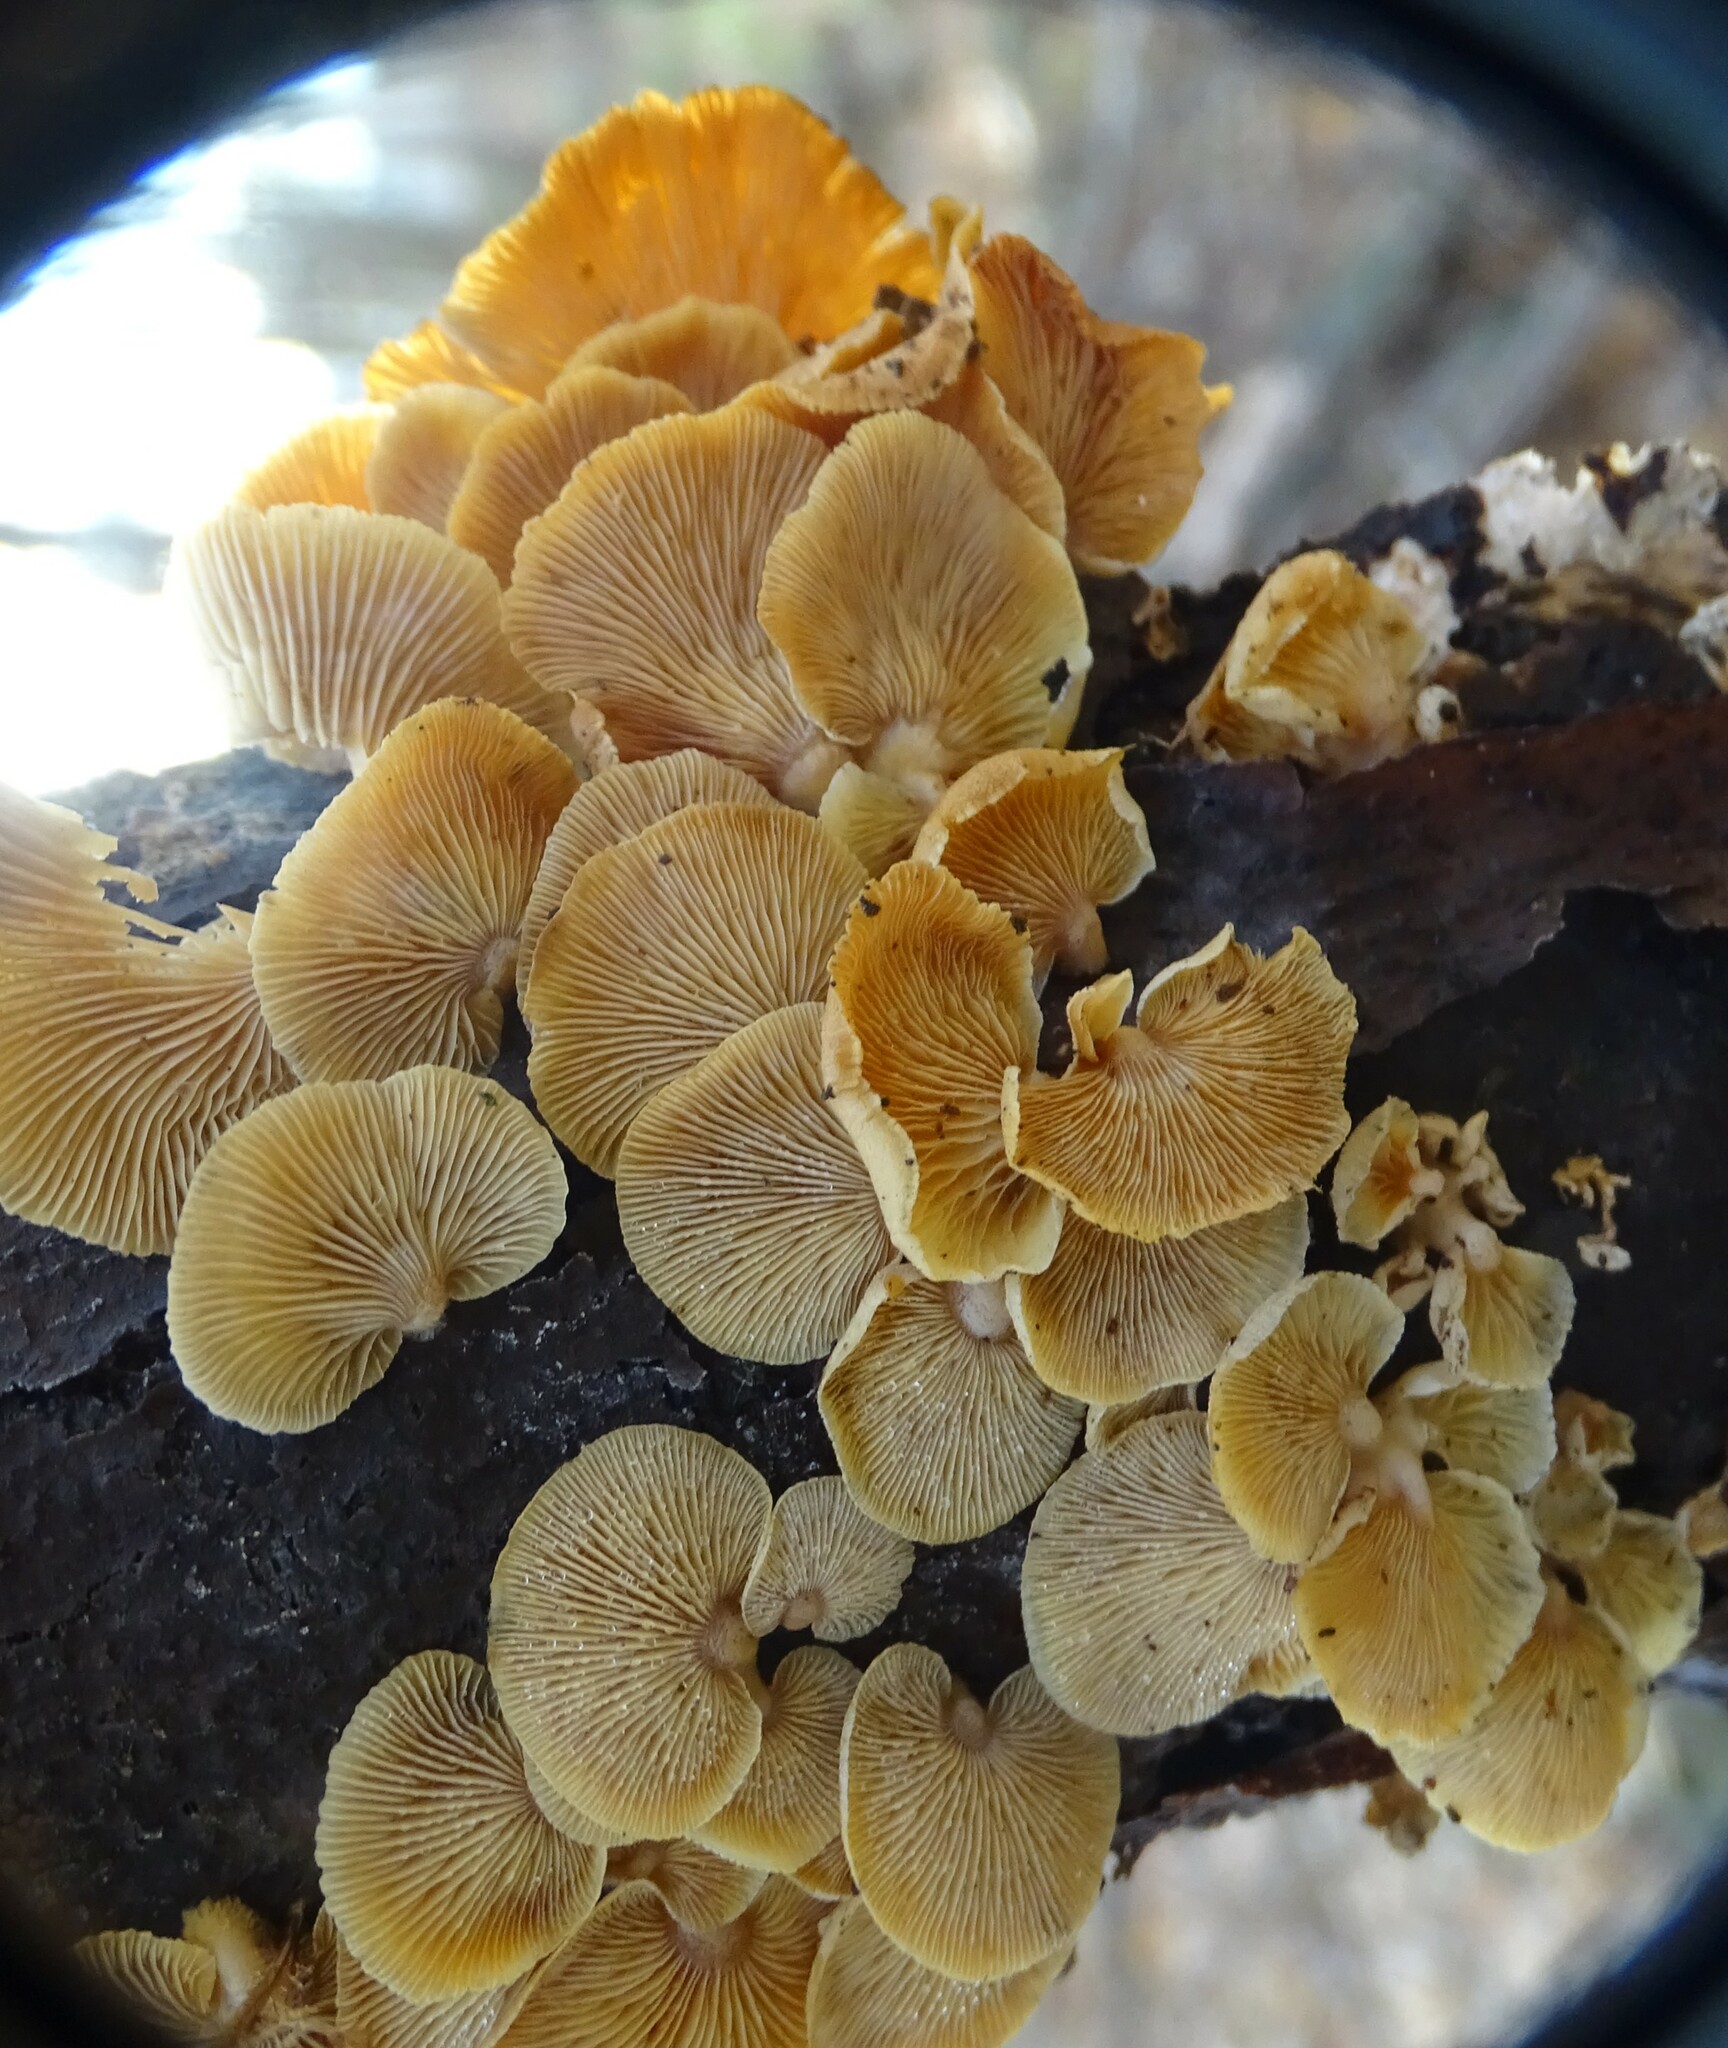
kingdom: Fungi
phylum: Basidiomycota
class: Agaricomycetes
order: Agaricales
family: Mycenaceae
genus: Panellus
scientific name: Panellus stipticus
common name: Bitter oysterling
